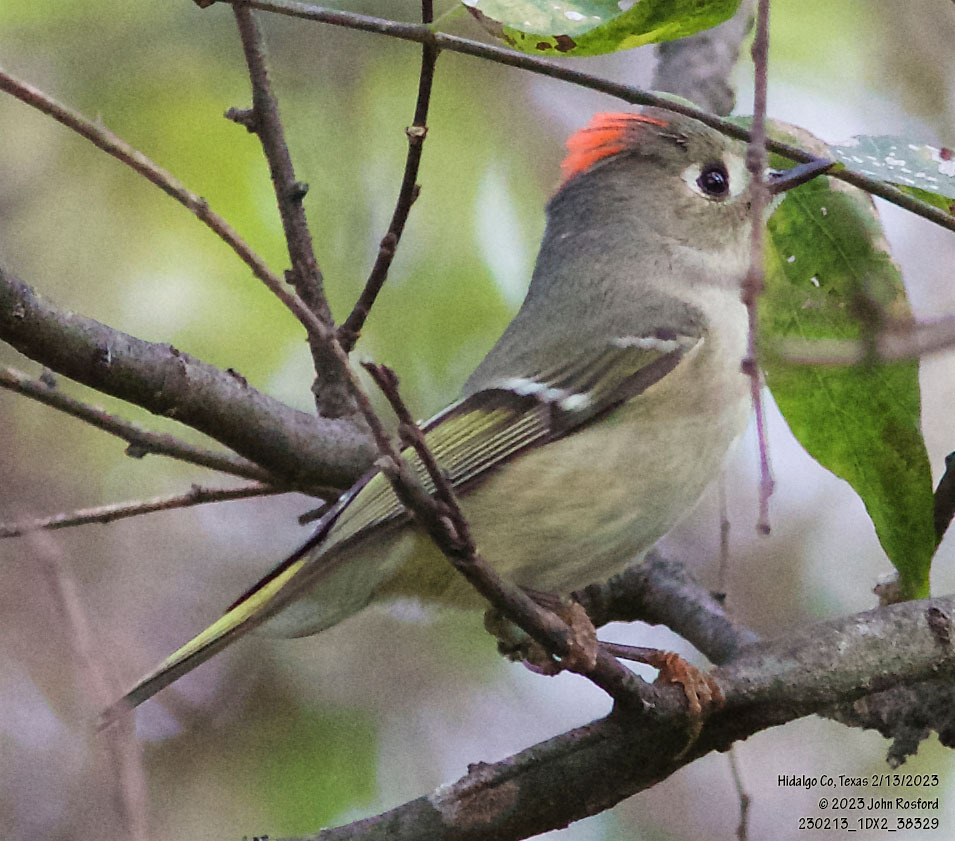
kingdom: Animalia
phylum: Chordata
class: Aves
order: Passeriformes
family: Regulidae
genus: Regulus
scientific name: Regulus calendula
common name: Ruby-crowned kinglet
